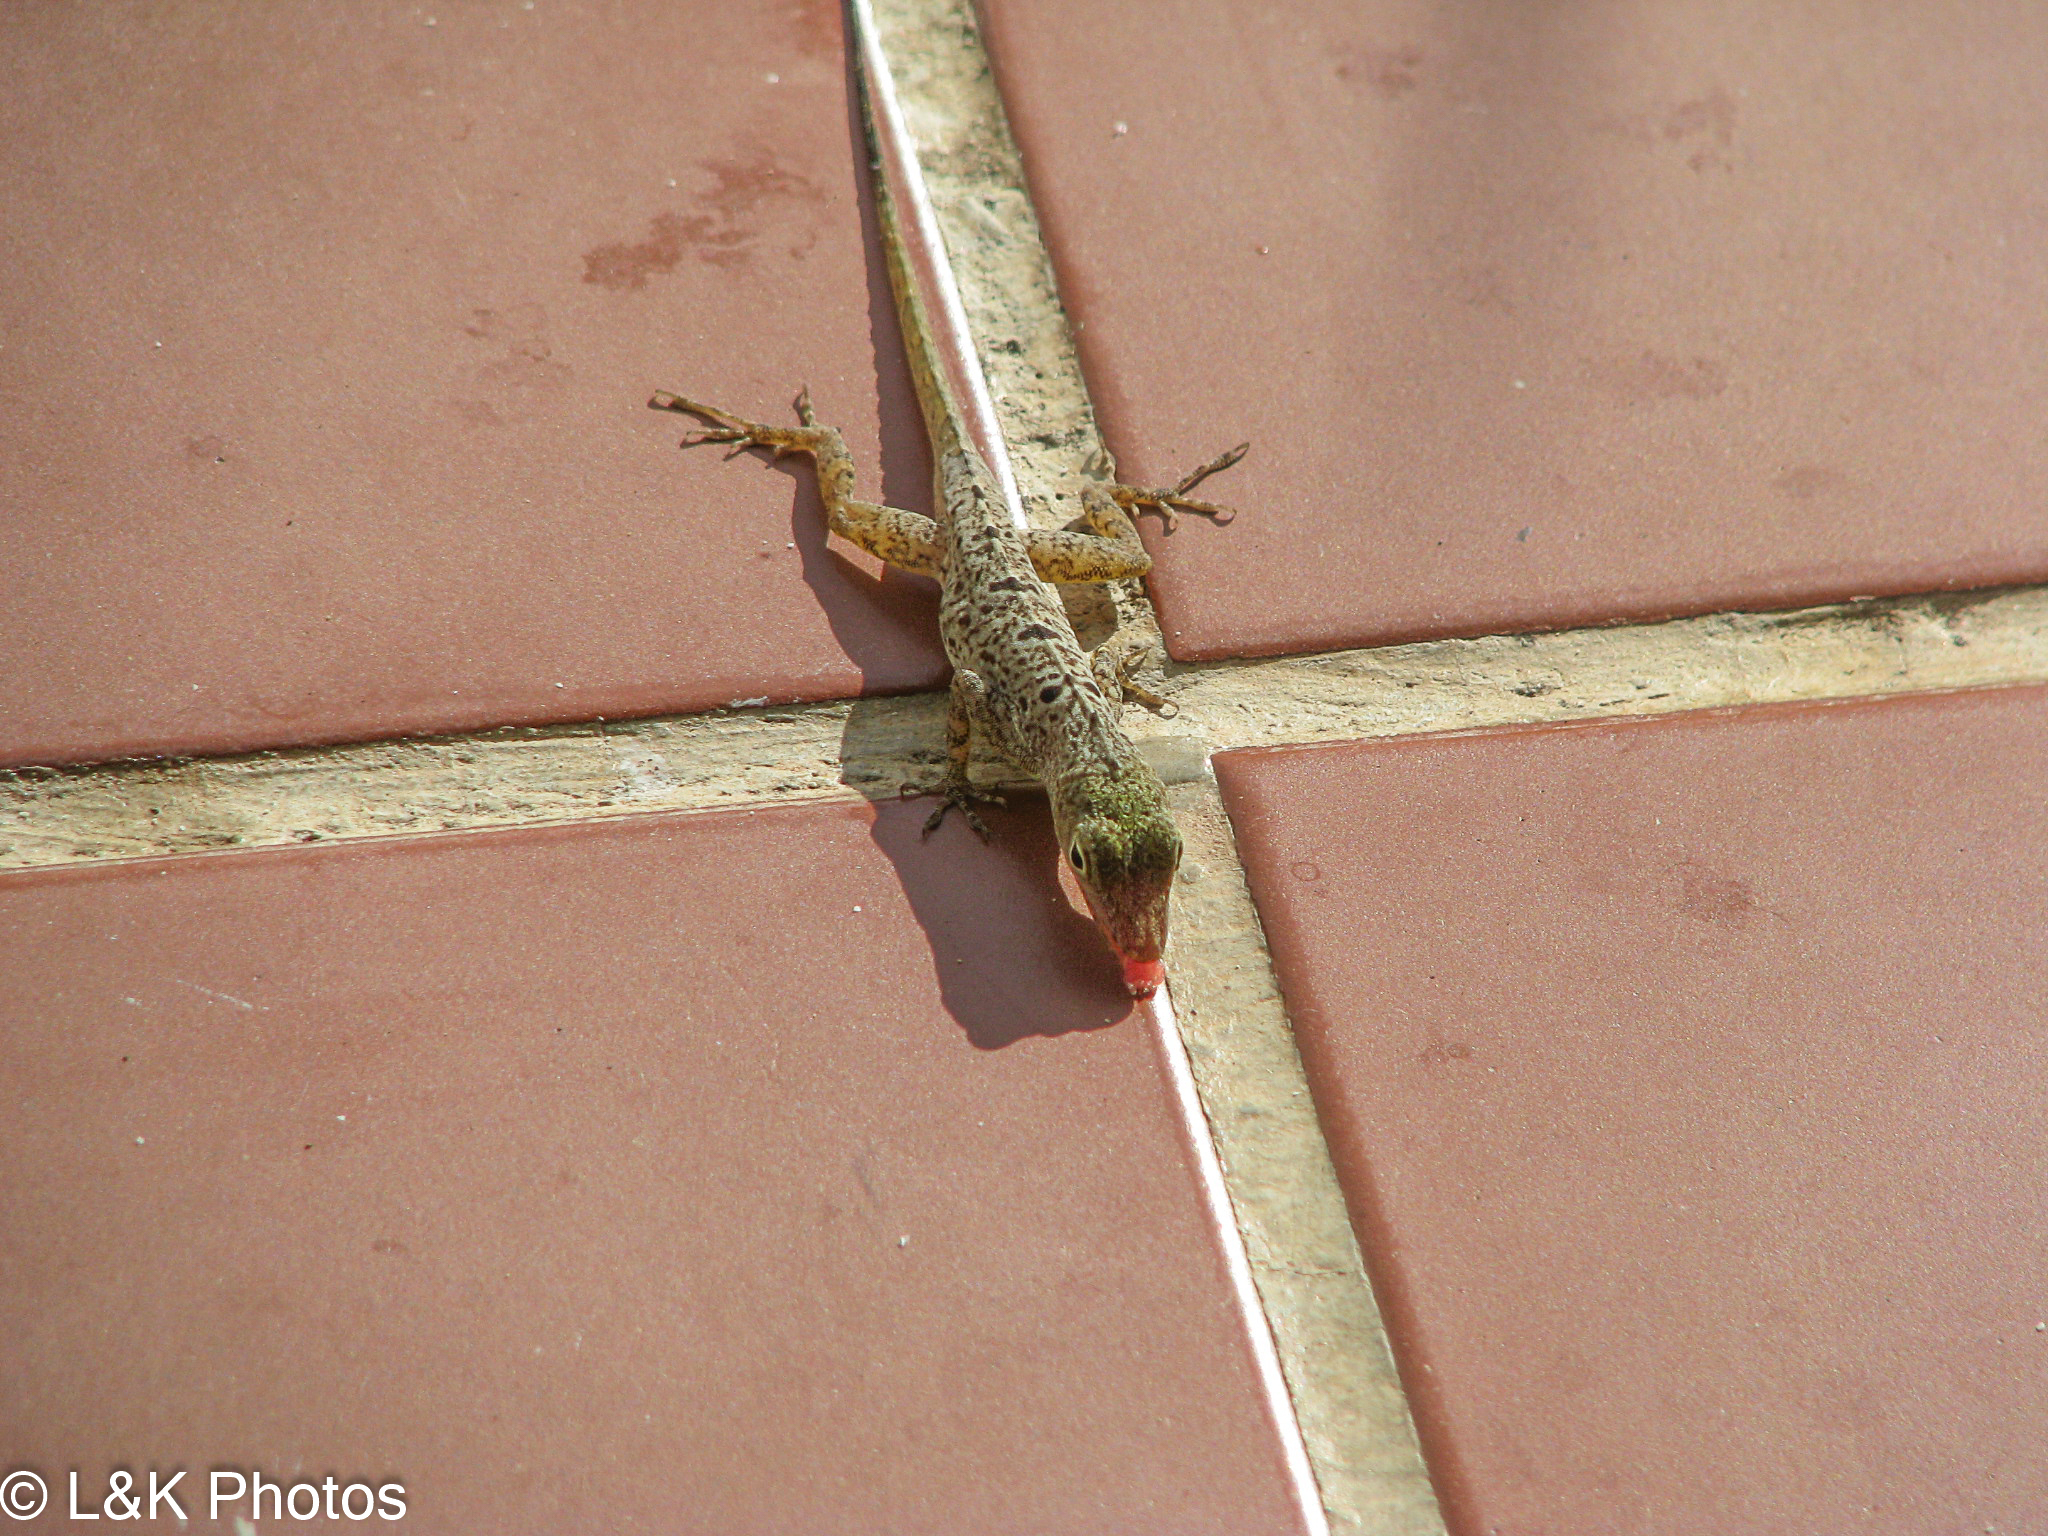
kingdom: Animalia
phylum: Chordata
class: Squamata
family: Dactyloidae
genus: Anolis
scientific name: Anolis stratulus
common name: Banded anole
